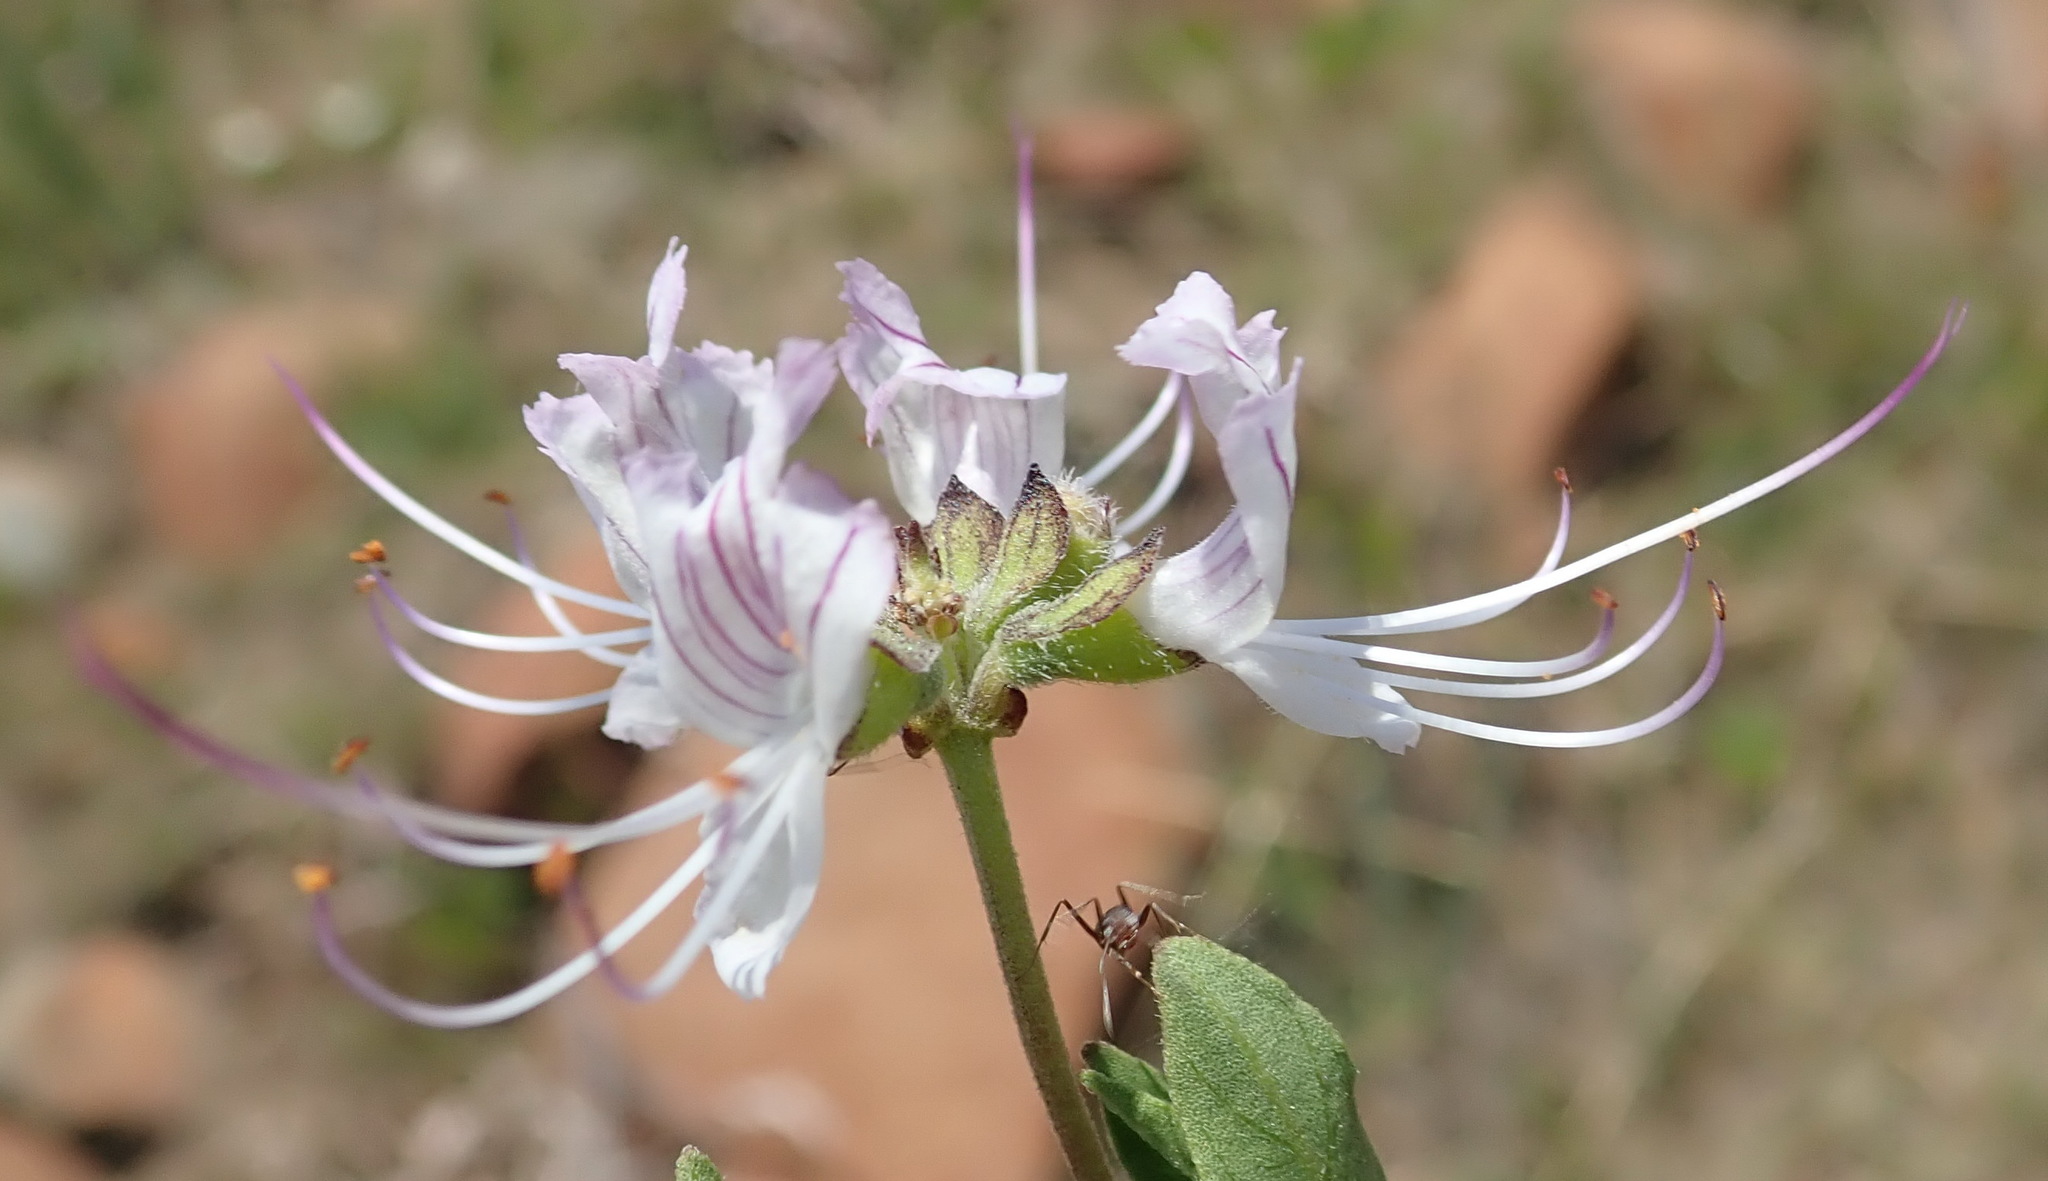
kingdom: Plantae
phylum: Tracheophyta
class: Magnoliopsida
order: Lamiales
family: Lamiaceae
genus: Ocimum
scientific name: Ocimum obovatum
